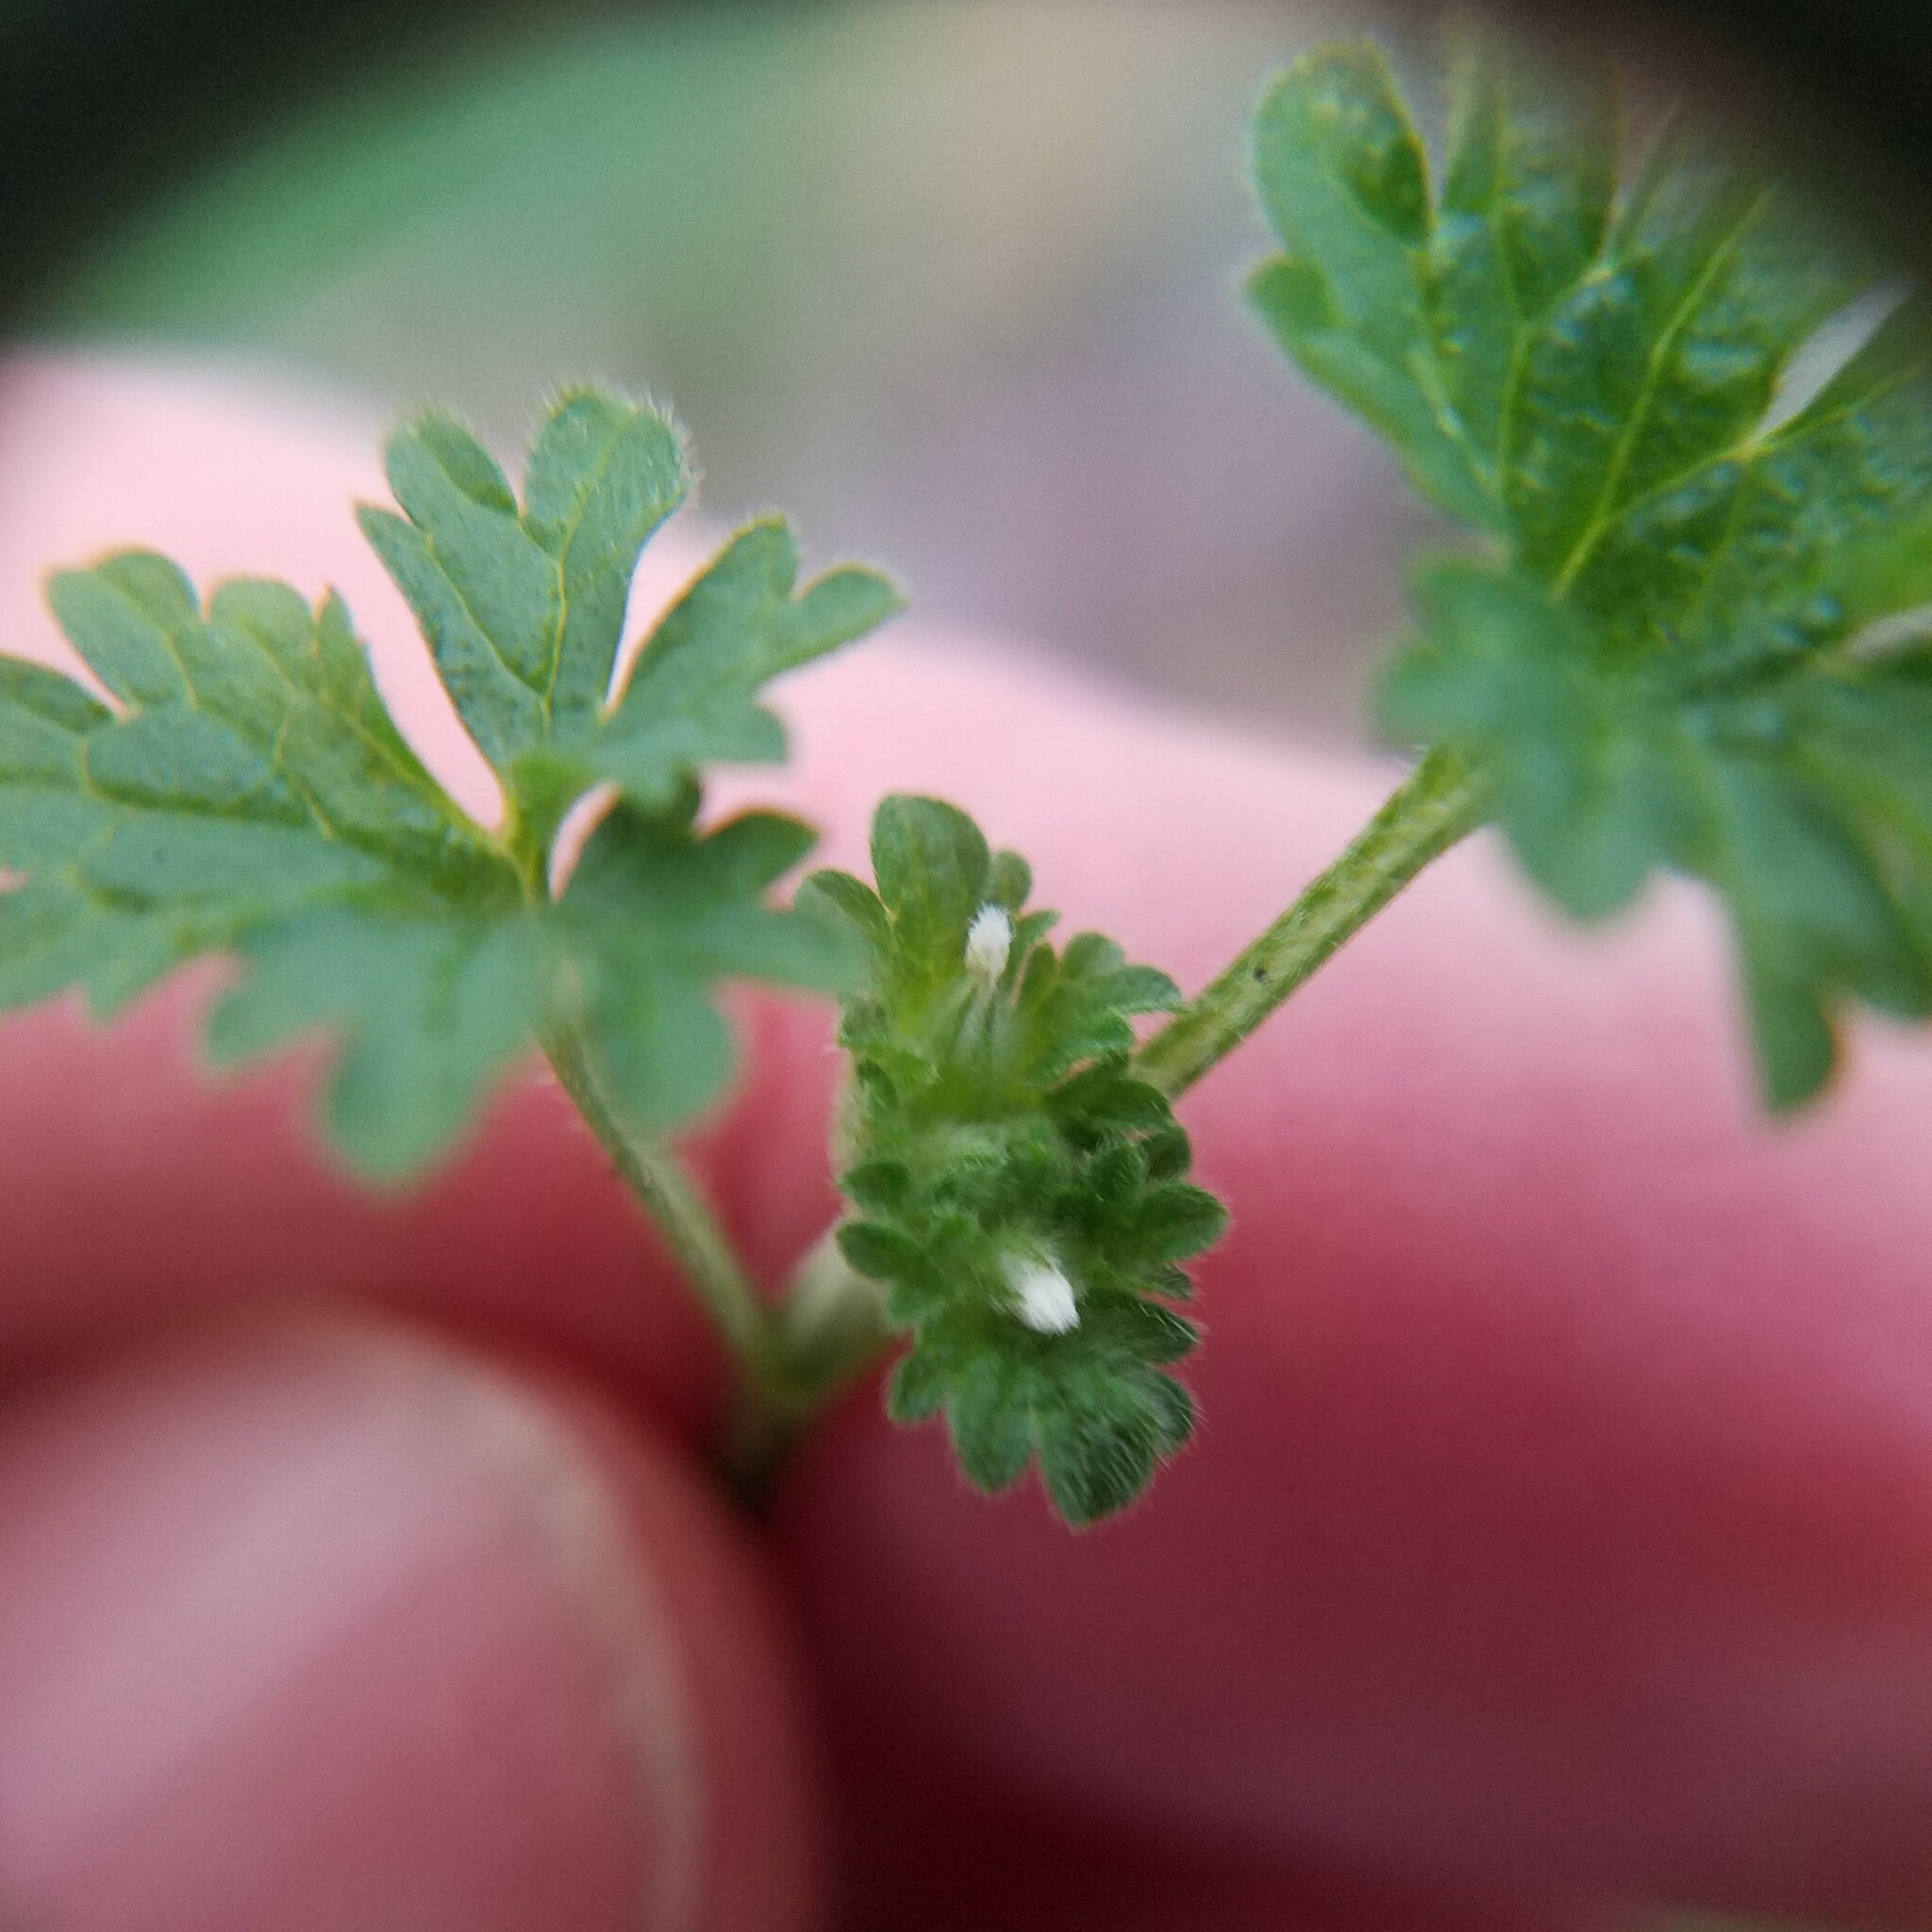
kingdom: Plantae
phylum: Tracheophyta
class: Magnoliopsida
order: Lamiales
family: Lamiaceae
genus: Lamium
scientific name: Lamium amplexicaule
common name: Henbit dead-nettle
